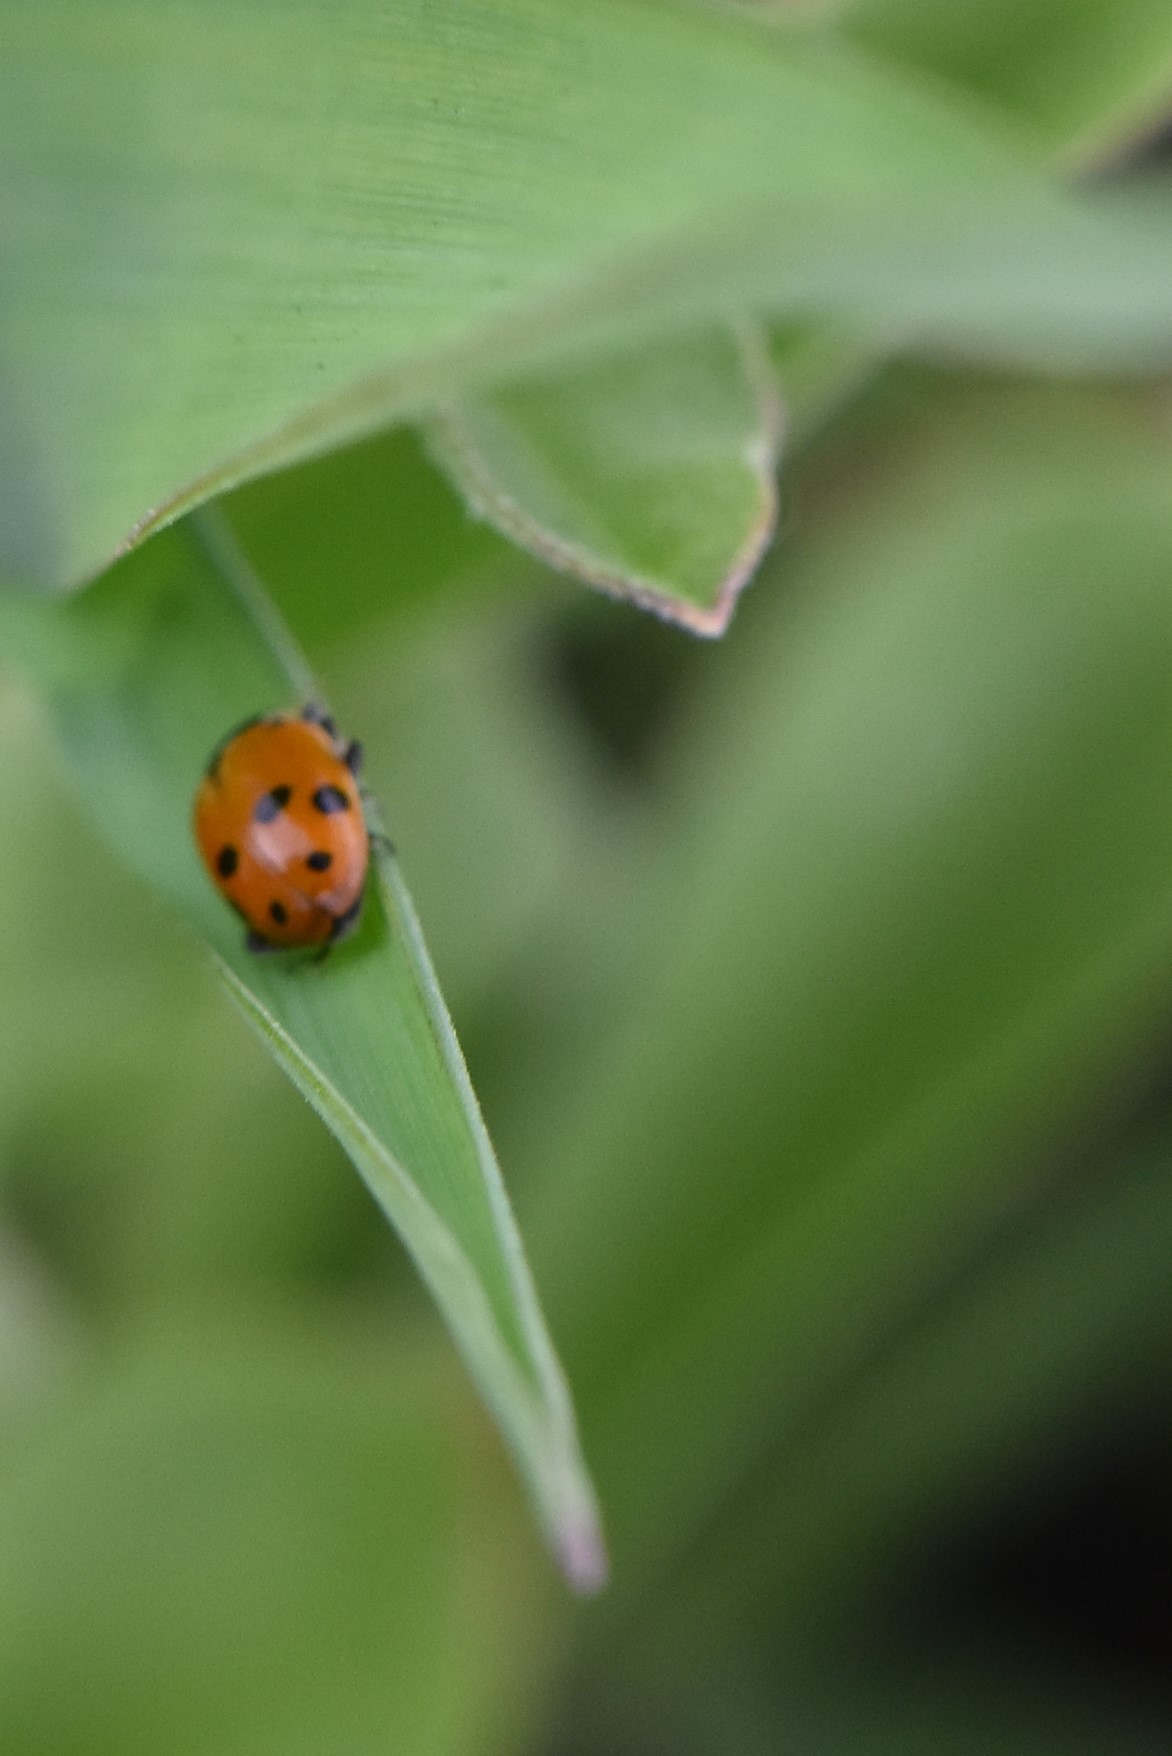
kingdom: Animalia
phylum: Arthropoda
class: Insecta
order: Coleoptera
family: Coccinellidae
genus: Hippodamia
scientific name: Hippodamia variegata
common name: Ladybird beetle
